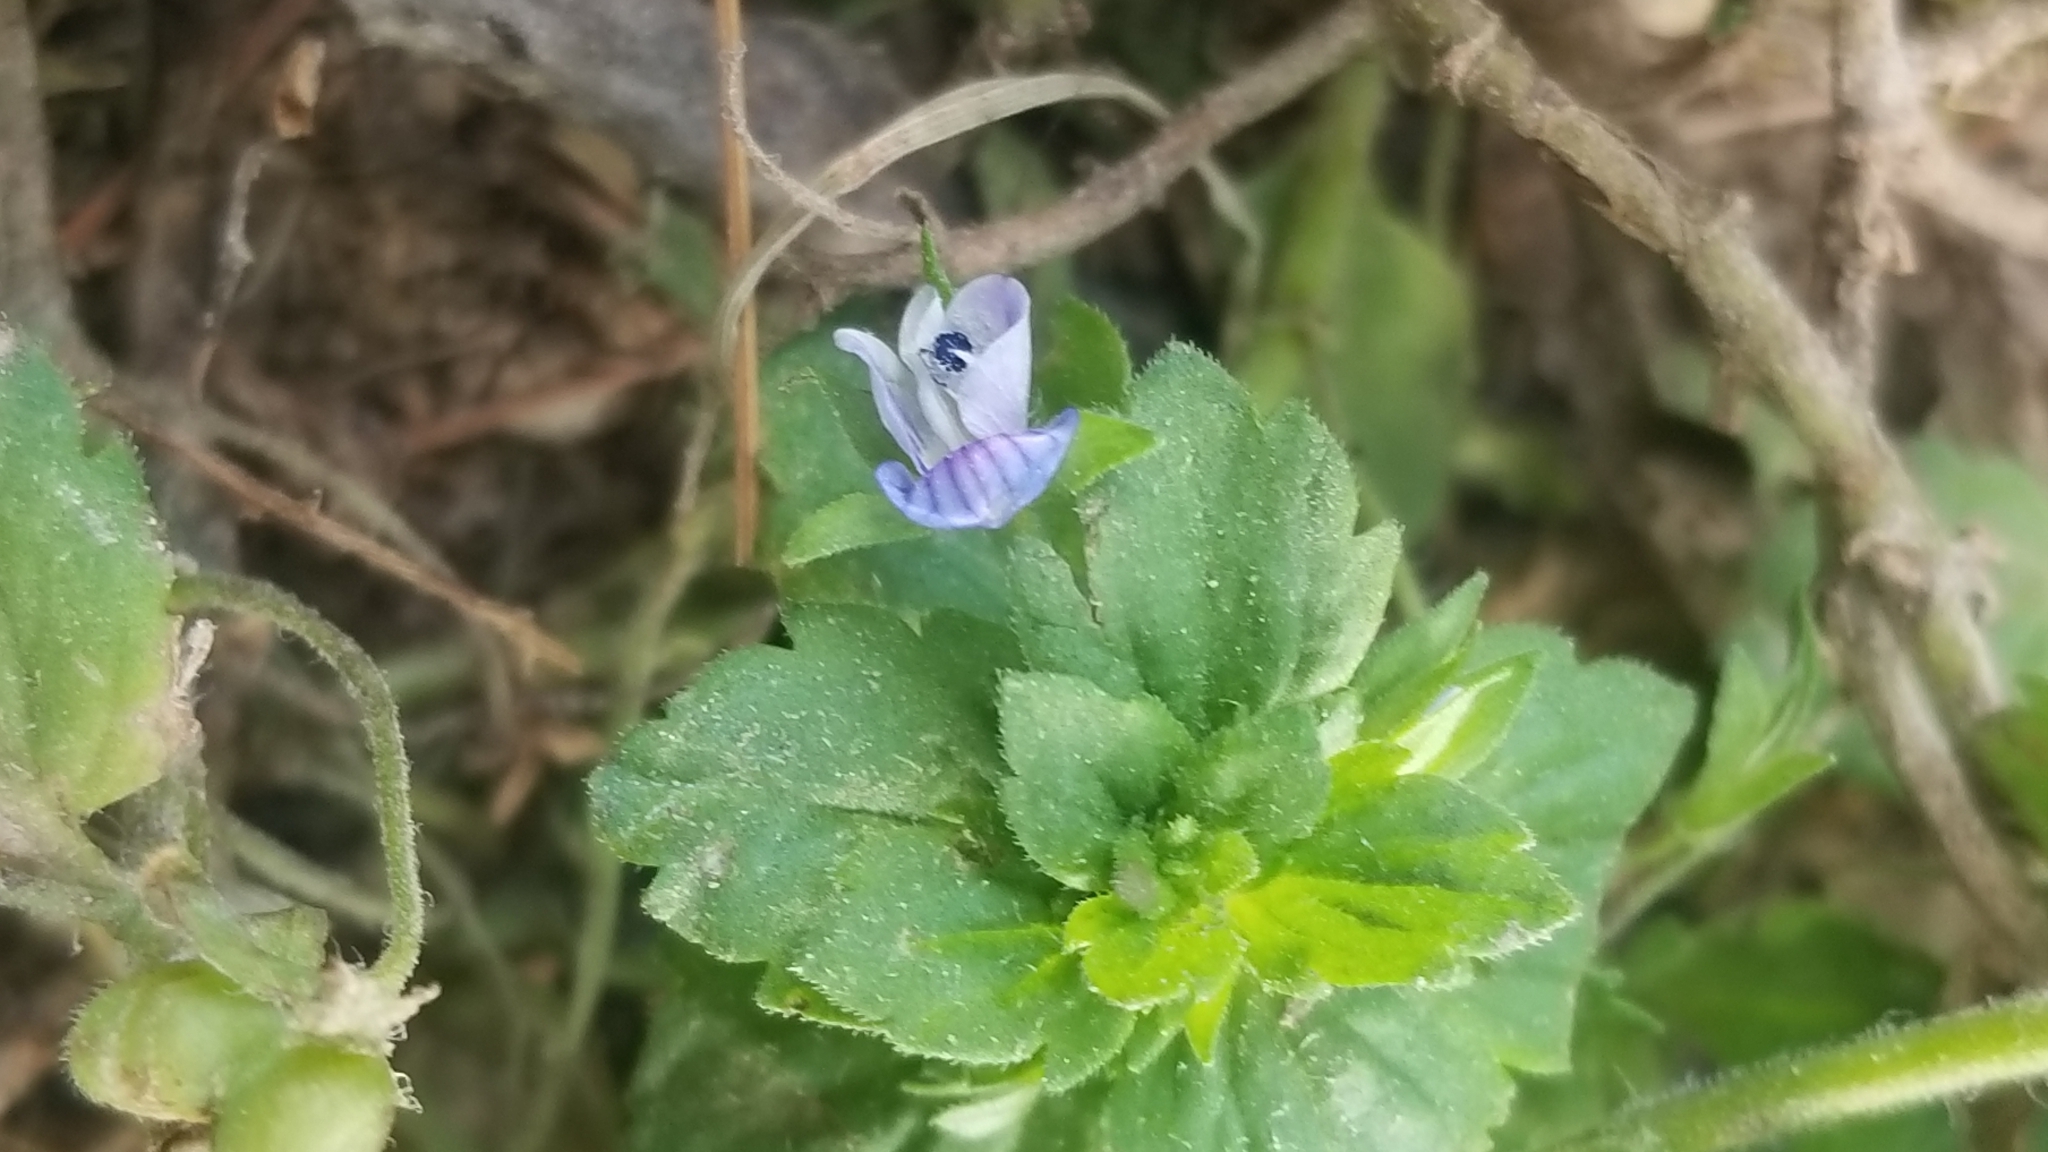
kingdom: Plantae
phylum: Tracheophyta
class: Magnoliopsida
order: Lamiales
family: Plantaginaceae
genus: Veronica
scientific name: Veronica persica
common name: Common field-speedwell
